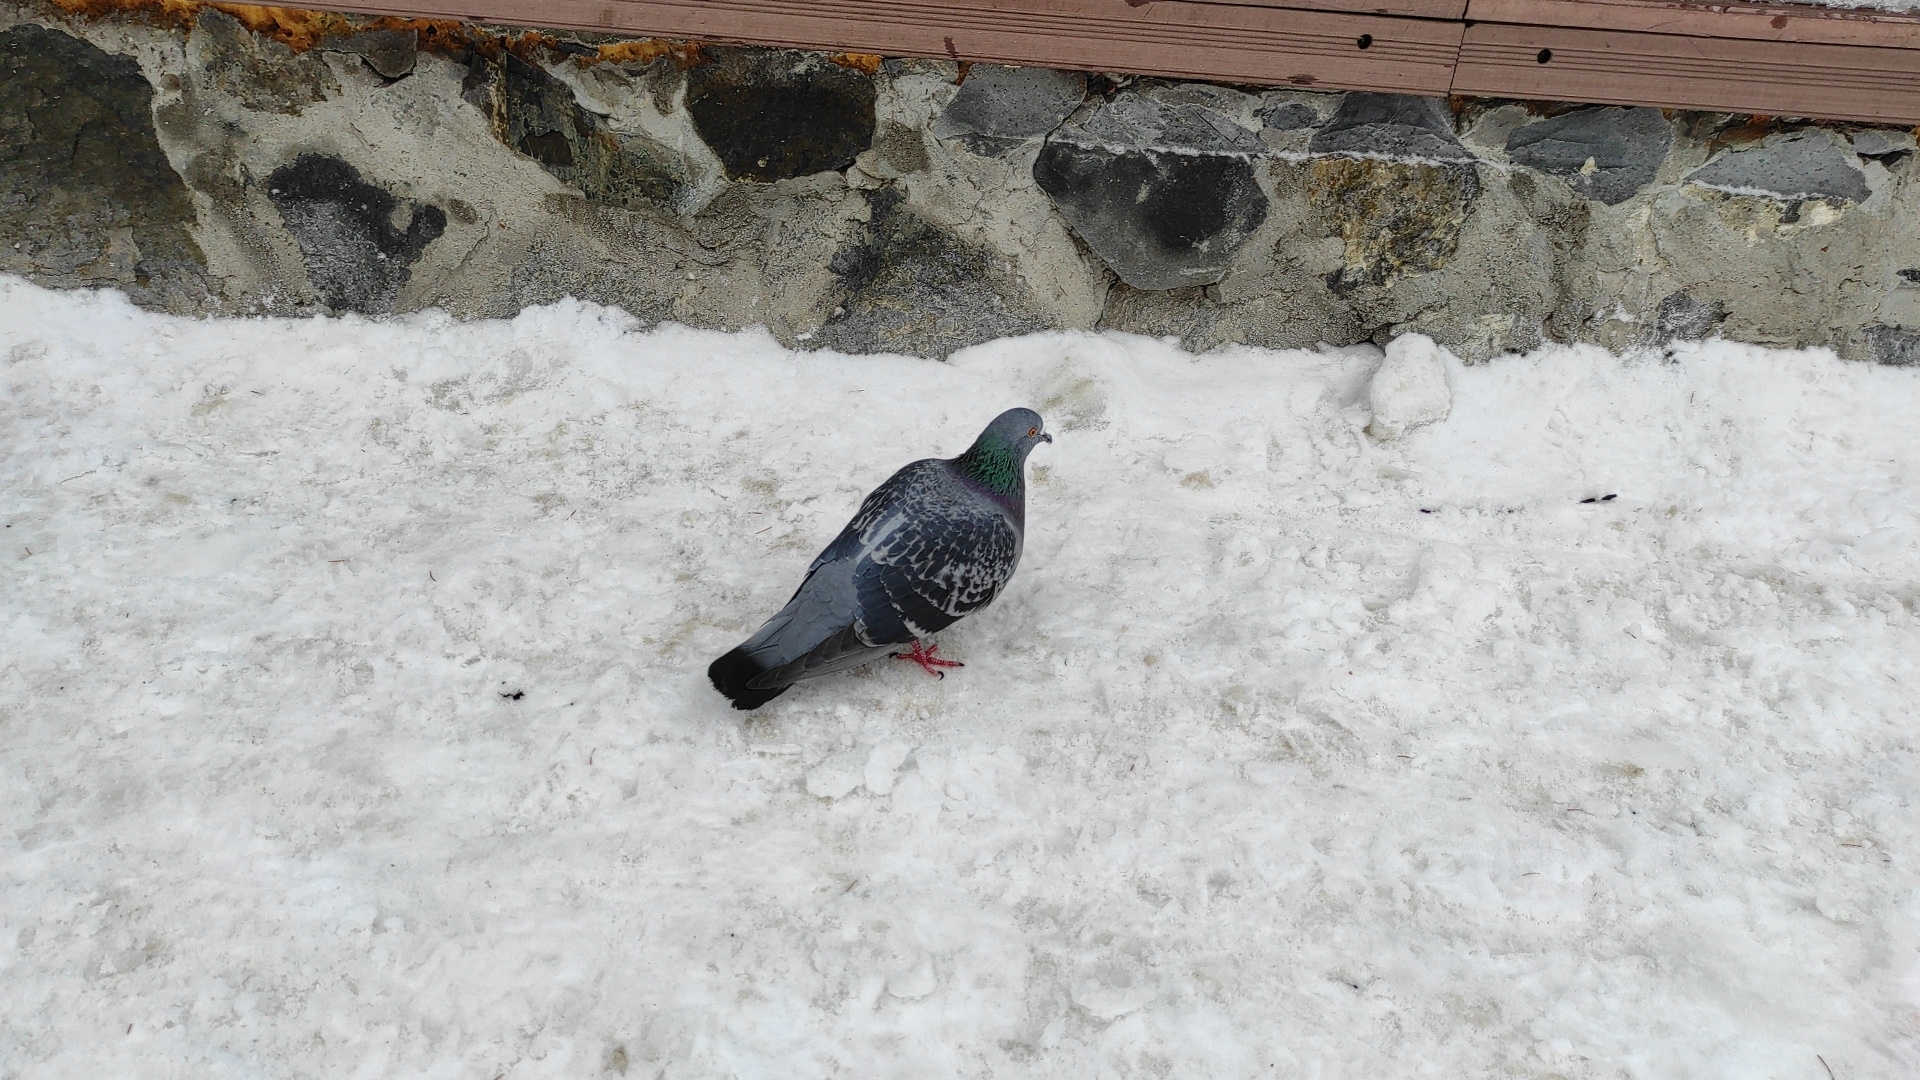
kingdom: Animalia
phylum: Chordata
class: Aves
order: Columbiformes
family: Columbidae
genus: Columba
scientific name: Columba livia
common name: Rock pigeon
